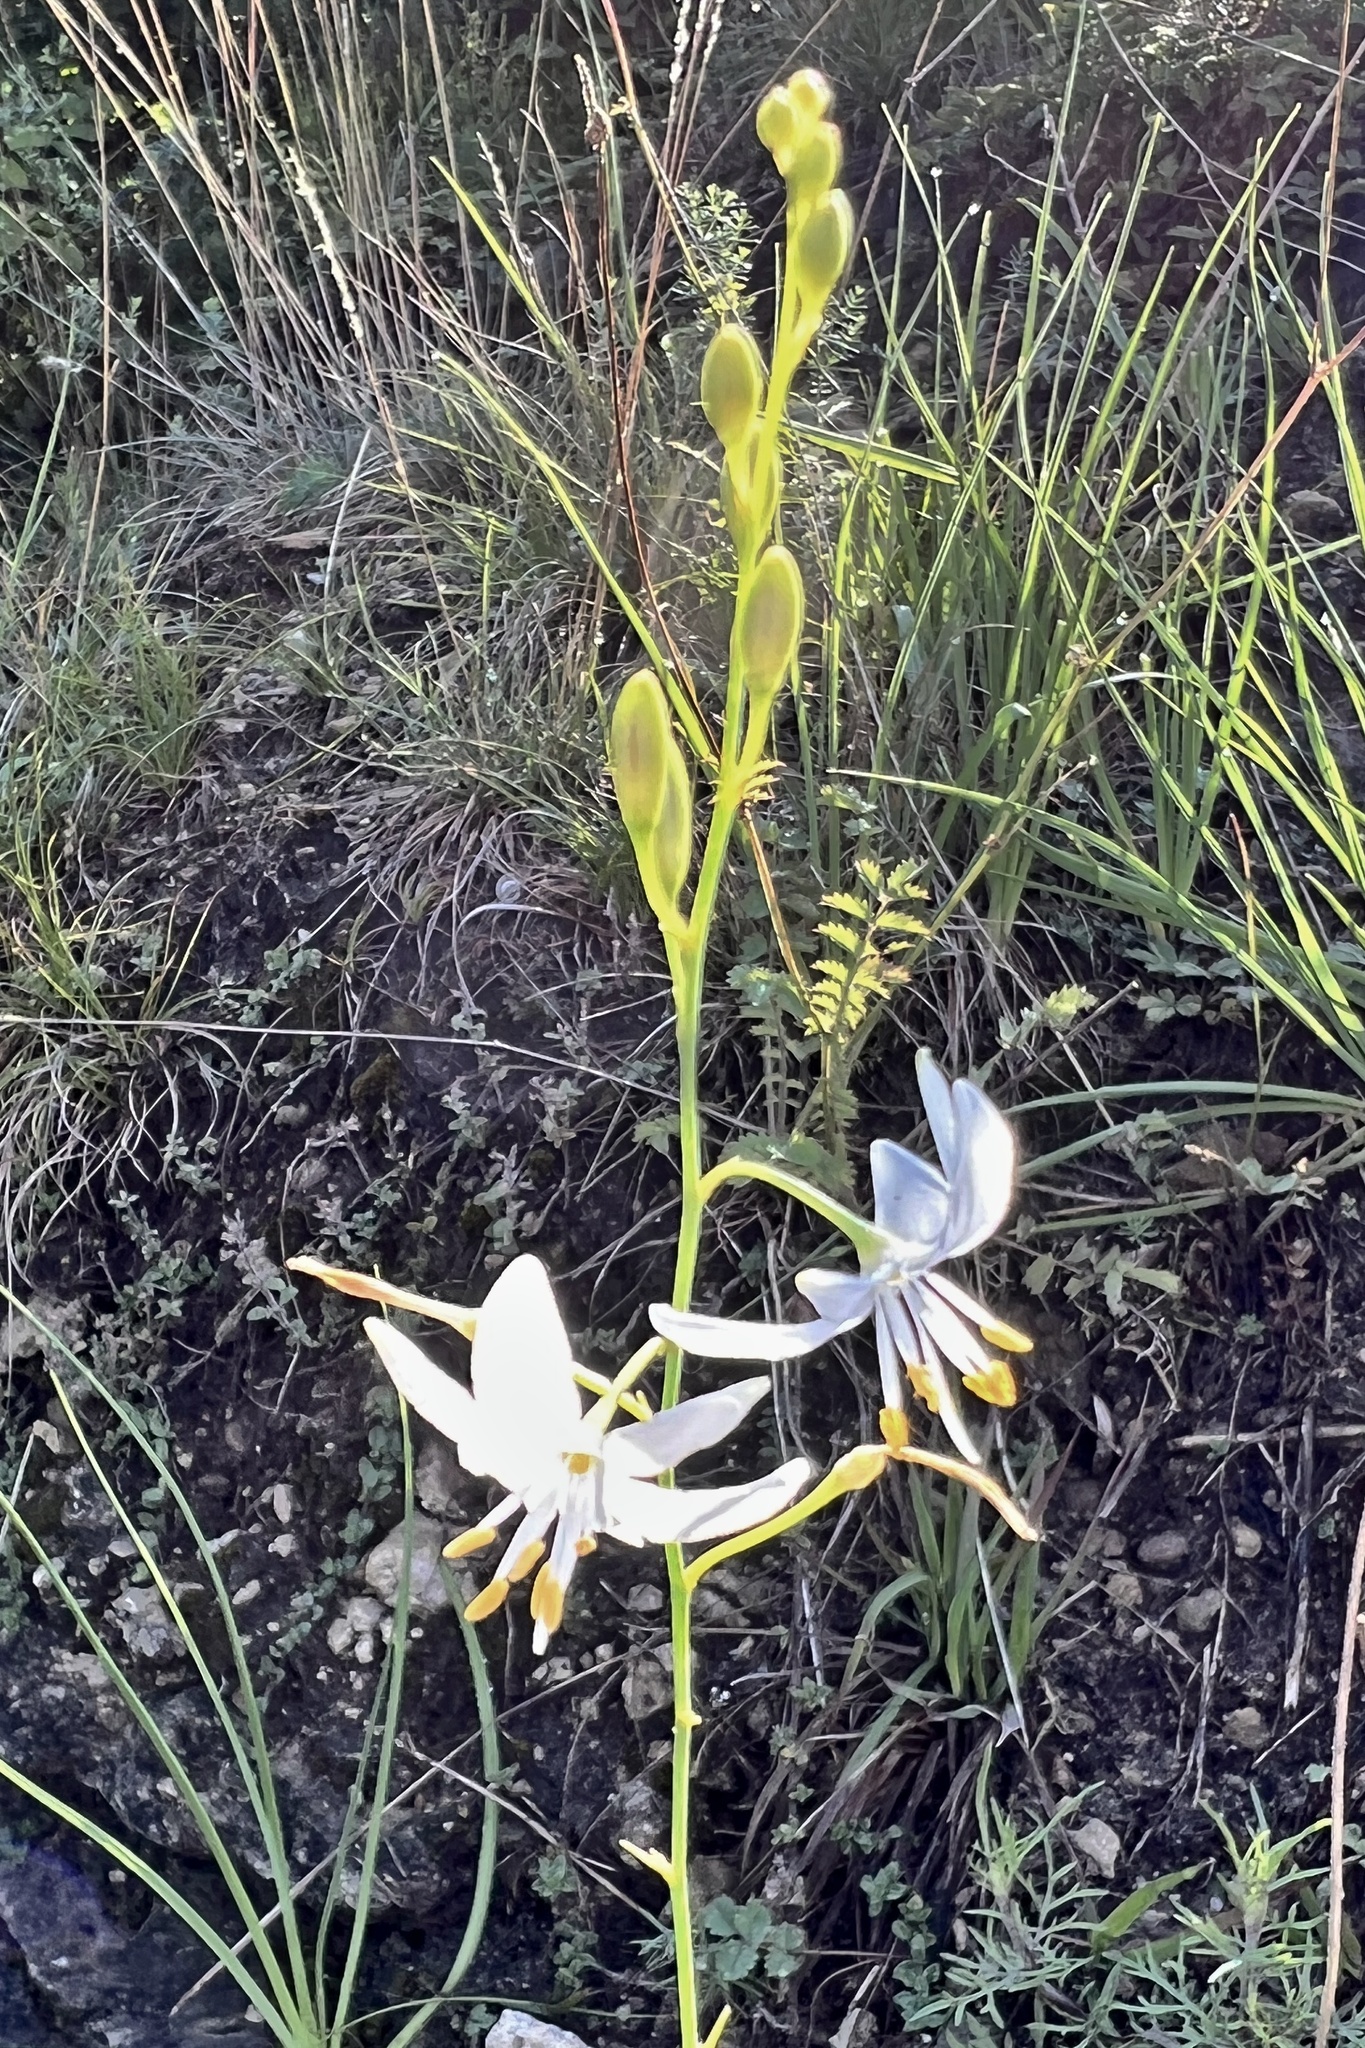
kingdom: Plantae
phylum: Tracheophyta
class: Liliopsida
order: Asparagales
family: Asparagaceae
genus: Anthericum
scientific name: Anthericum ramosum
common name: Branched st. bernard's-lily
